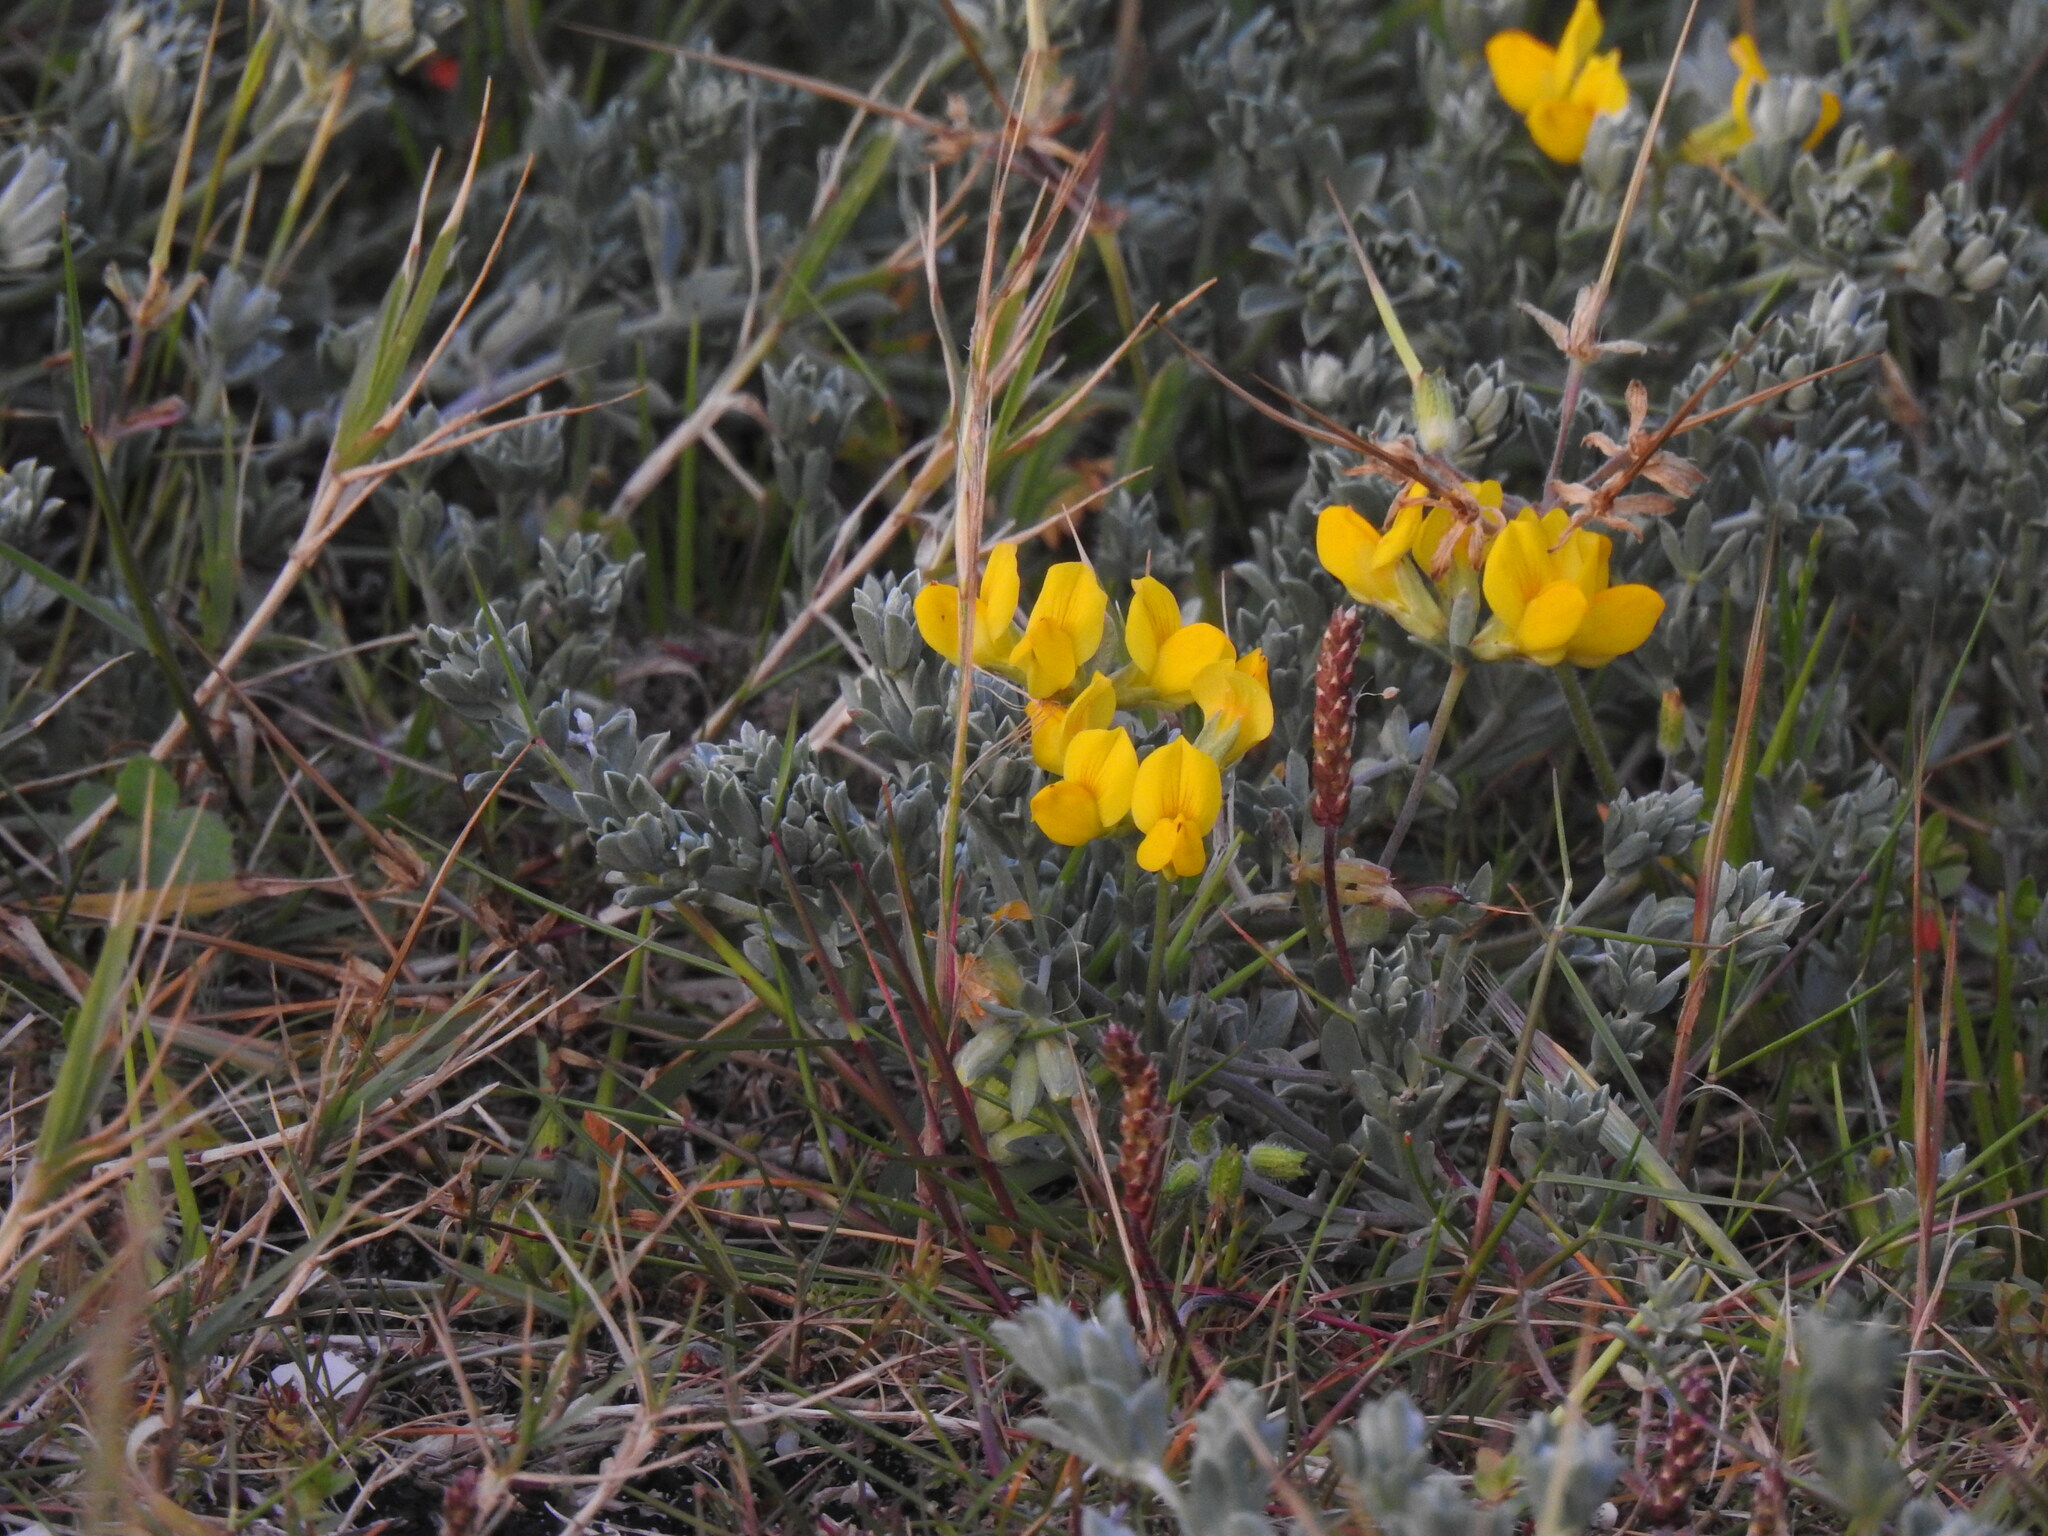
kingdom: Plantae
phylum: Tracheophyta
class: Magnoliopsida
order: Fabales
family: Fabaceae
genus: Lotus
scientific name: Lotus creticus
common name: Cretan bird's-foot trefoil
